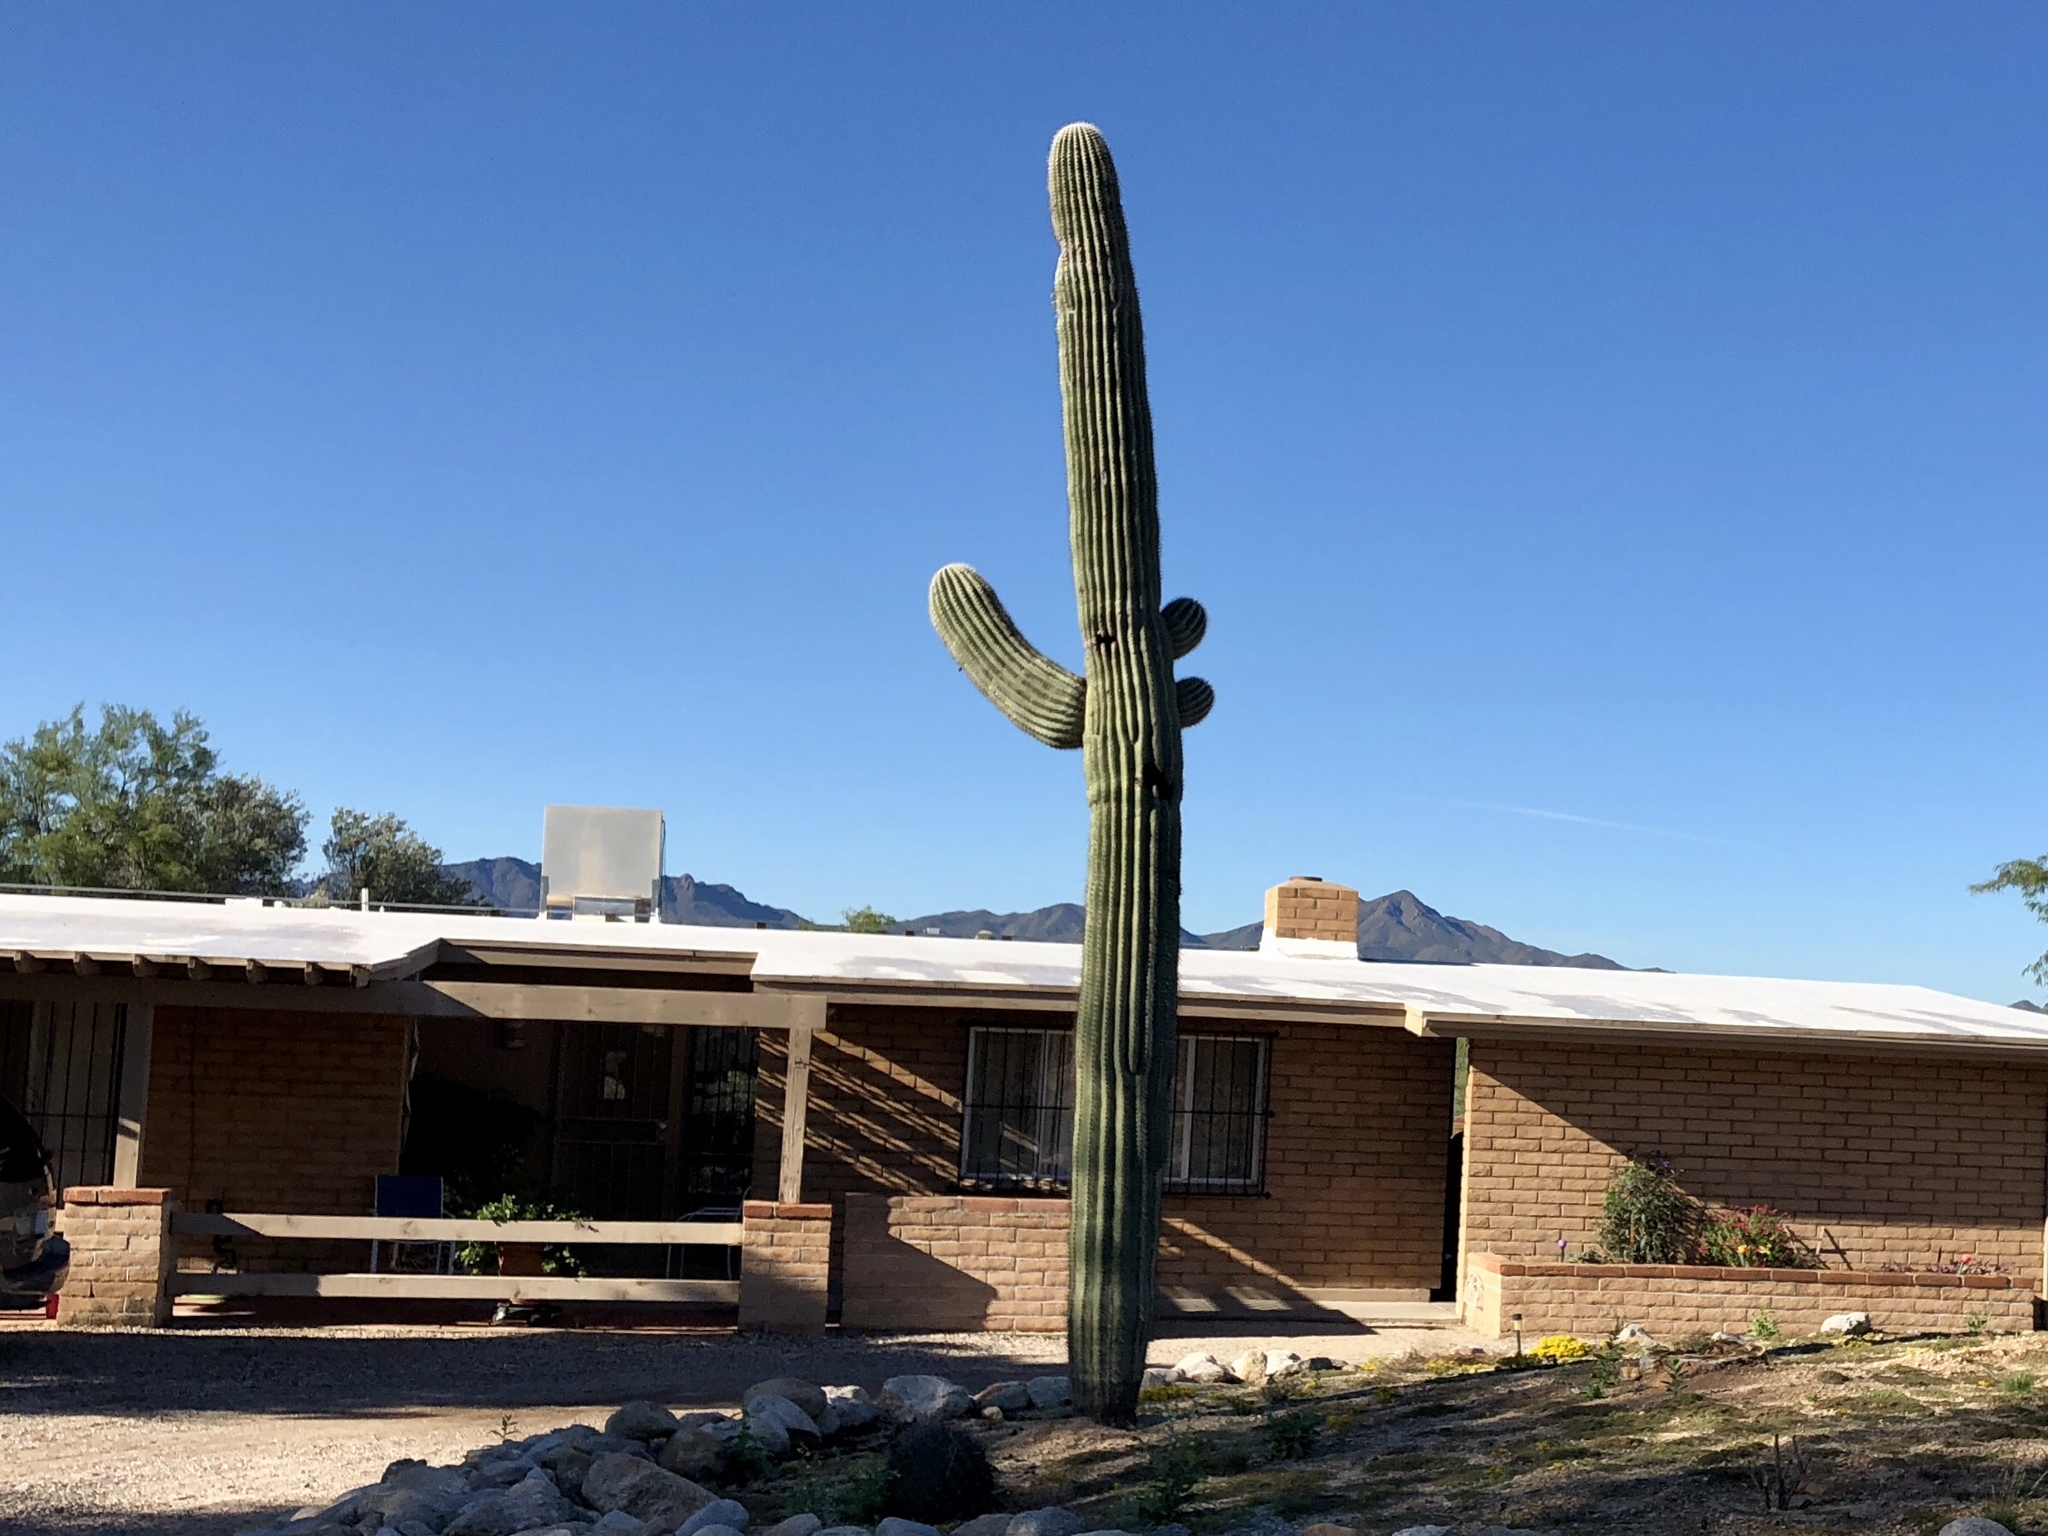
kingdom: Plantae
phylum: Tracheophyta
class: Magnoliopsida
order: Caryophyllales
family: Cactaceae
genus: Carnegiea
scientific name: Carnegiea gigantea
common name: Saguaro
